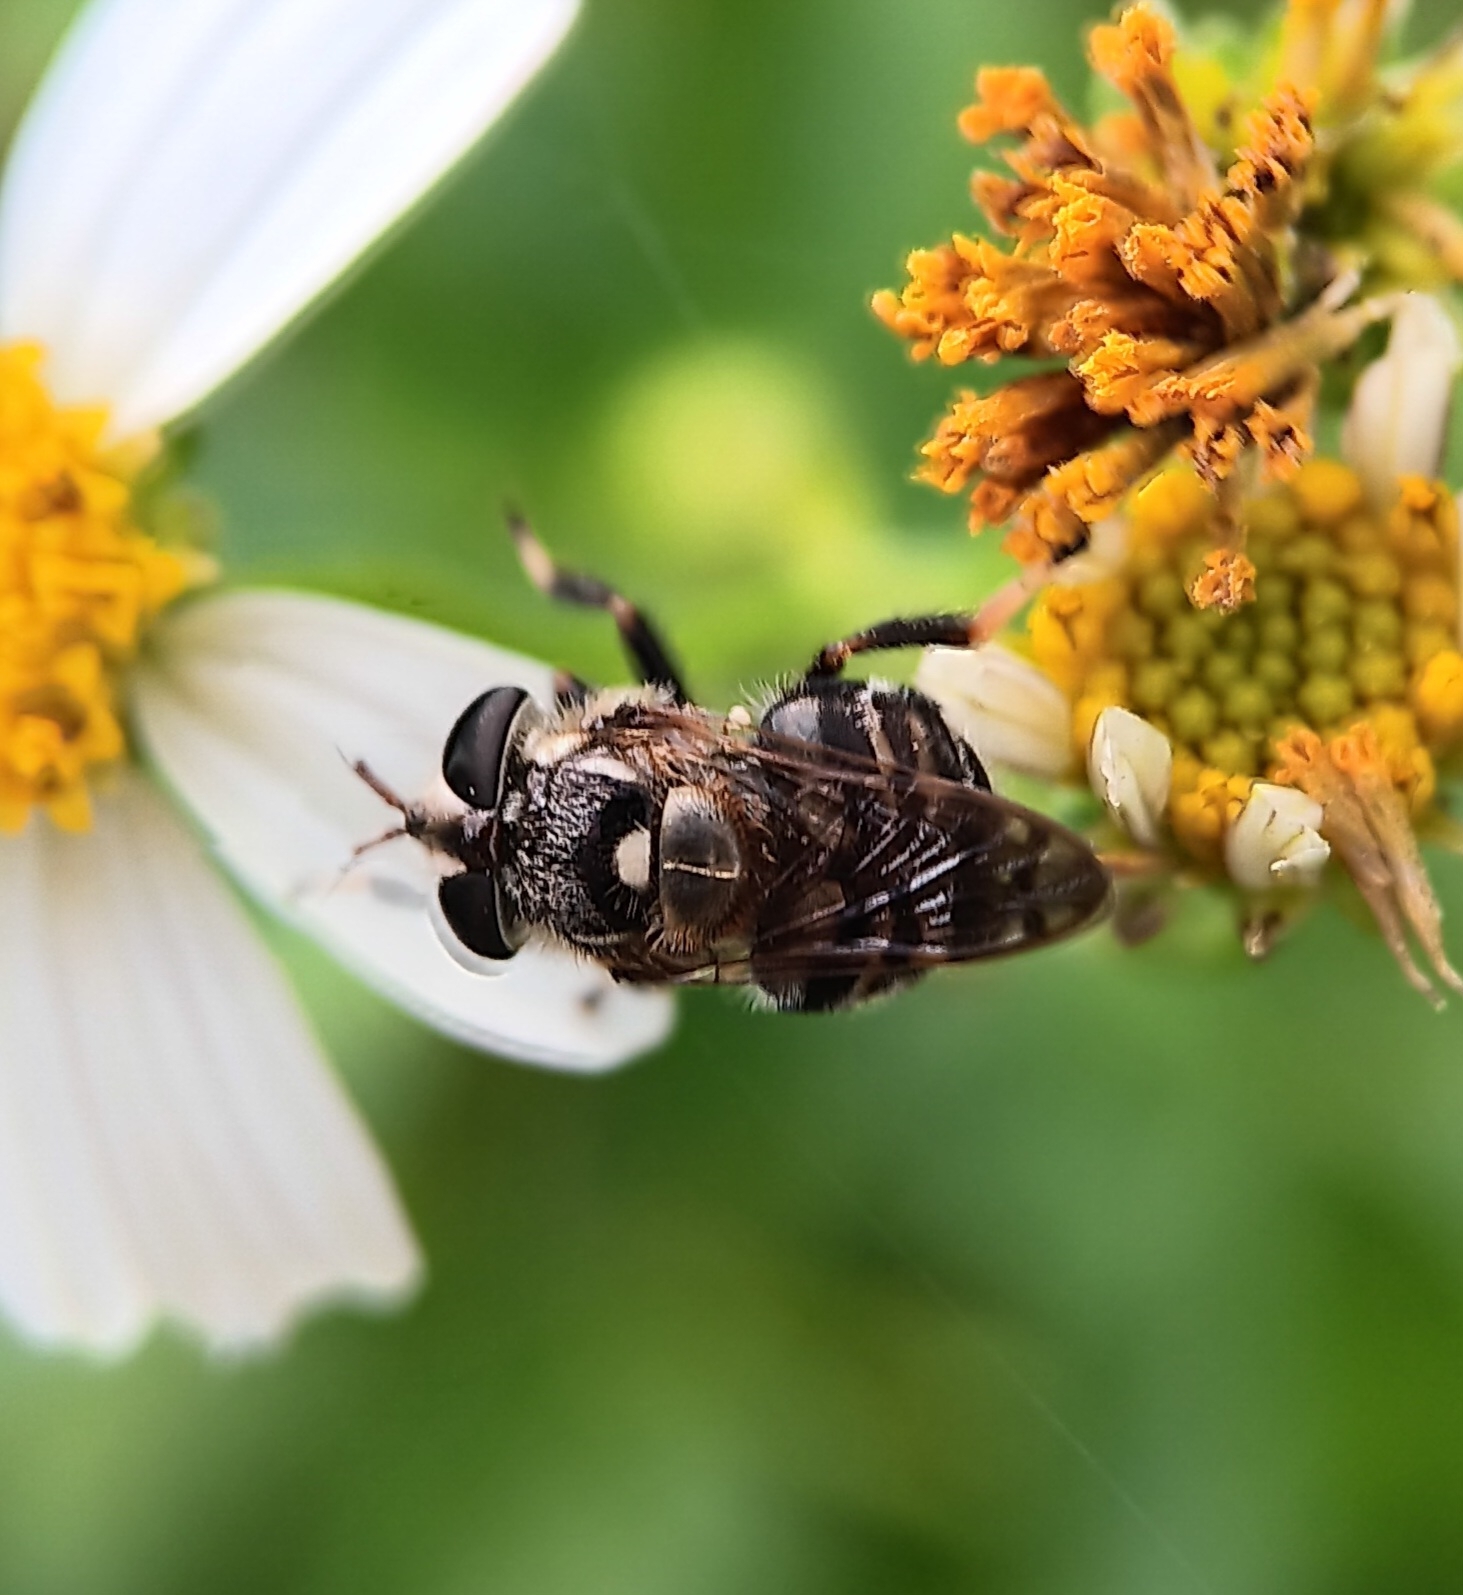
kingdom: Animalia
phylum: Arthropoda
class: Insecta
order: Diptera
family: Syrphidae
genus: Copestylum
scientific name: Copestylum tamaulipanum
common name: Syrphid fly
